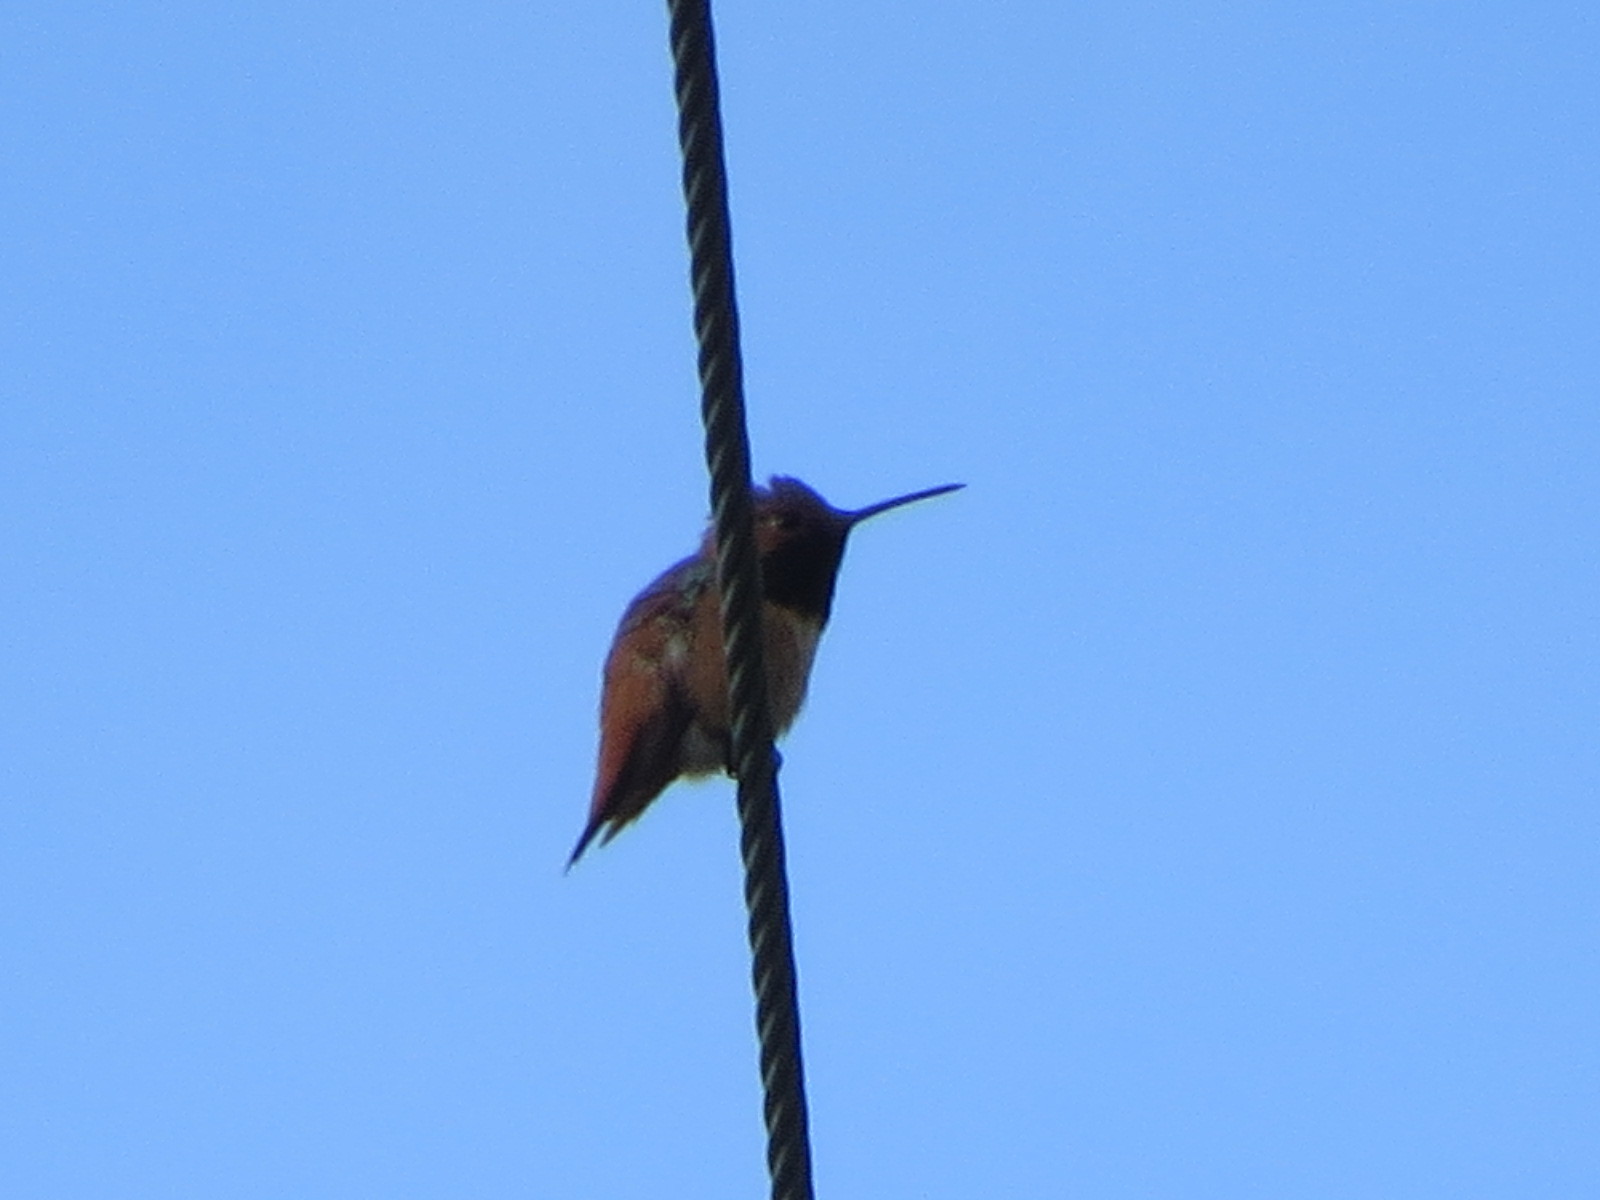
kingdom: Animalia
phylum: Chordata
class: Aves
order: Apodiformes
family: Trochilidae
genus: Selasphorus
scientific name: Selasphorus sasin
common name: Allen's hummingbird
